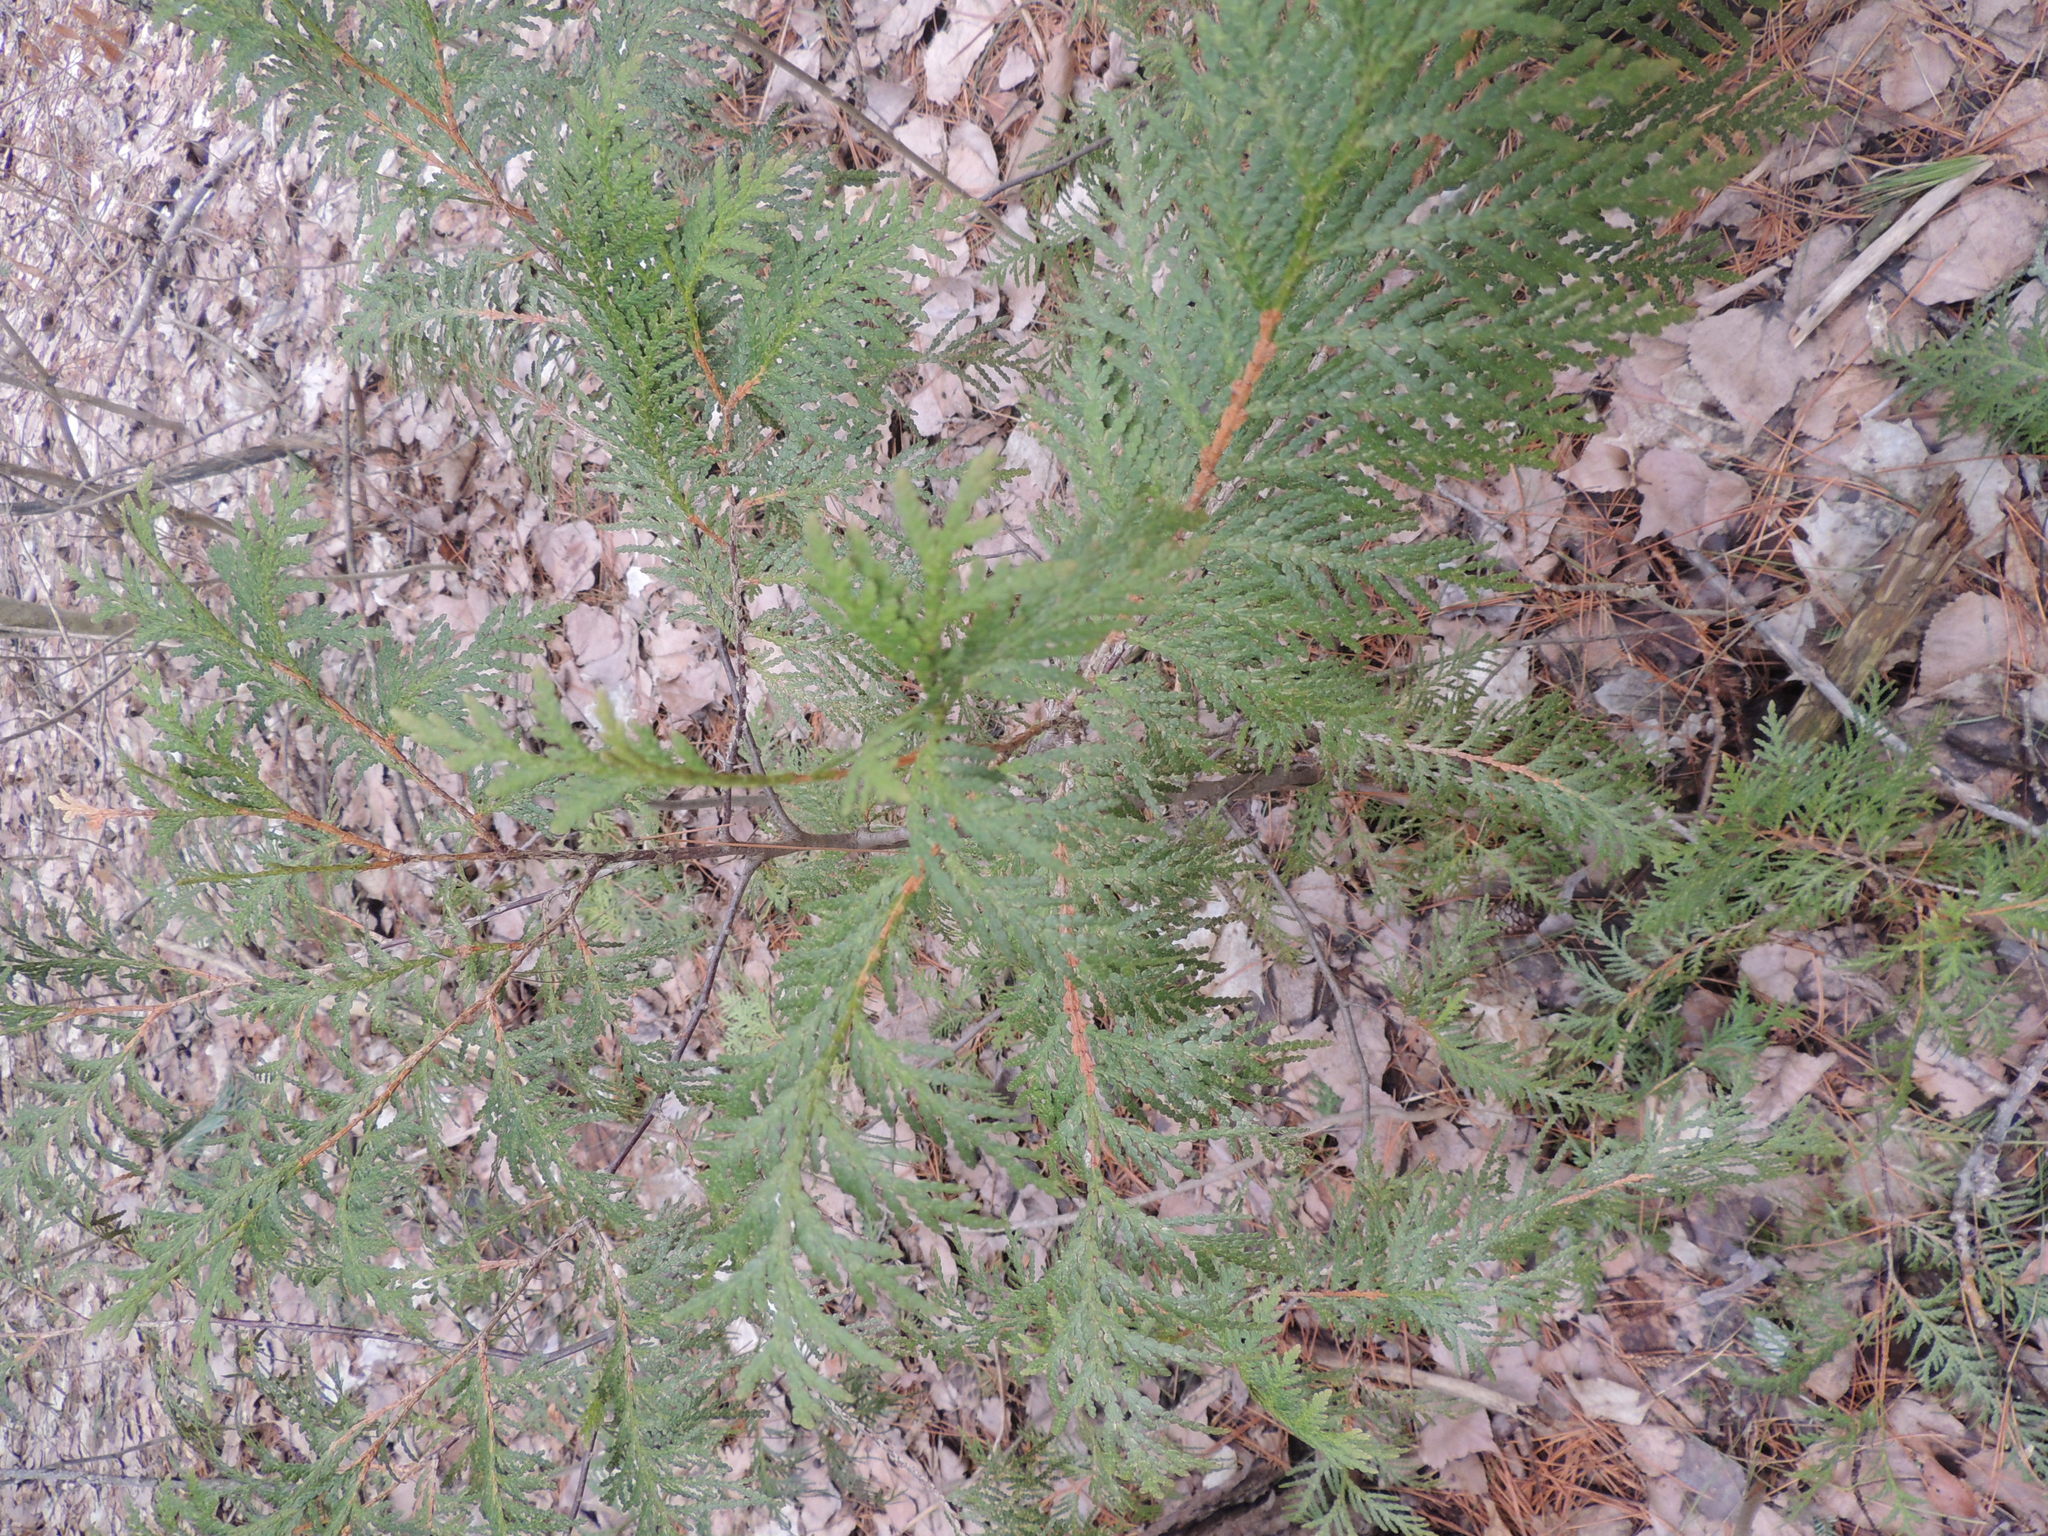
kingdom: Plantae
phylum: Tracheophyta
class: Pinopsida
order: Pinales
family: Cupressaceae
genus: Thuja
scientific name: Thuja occidentalis
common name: Northern white-cedar
